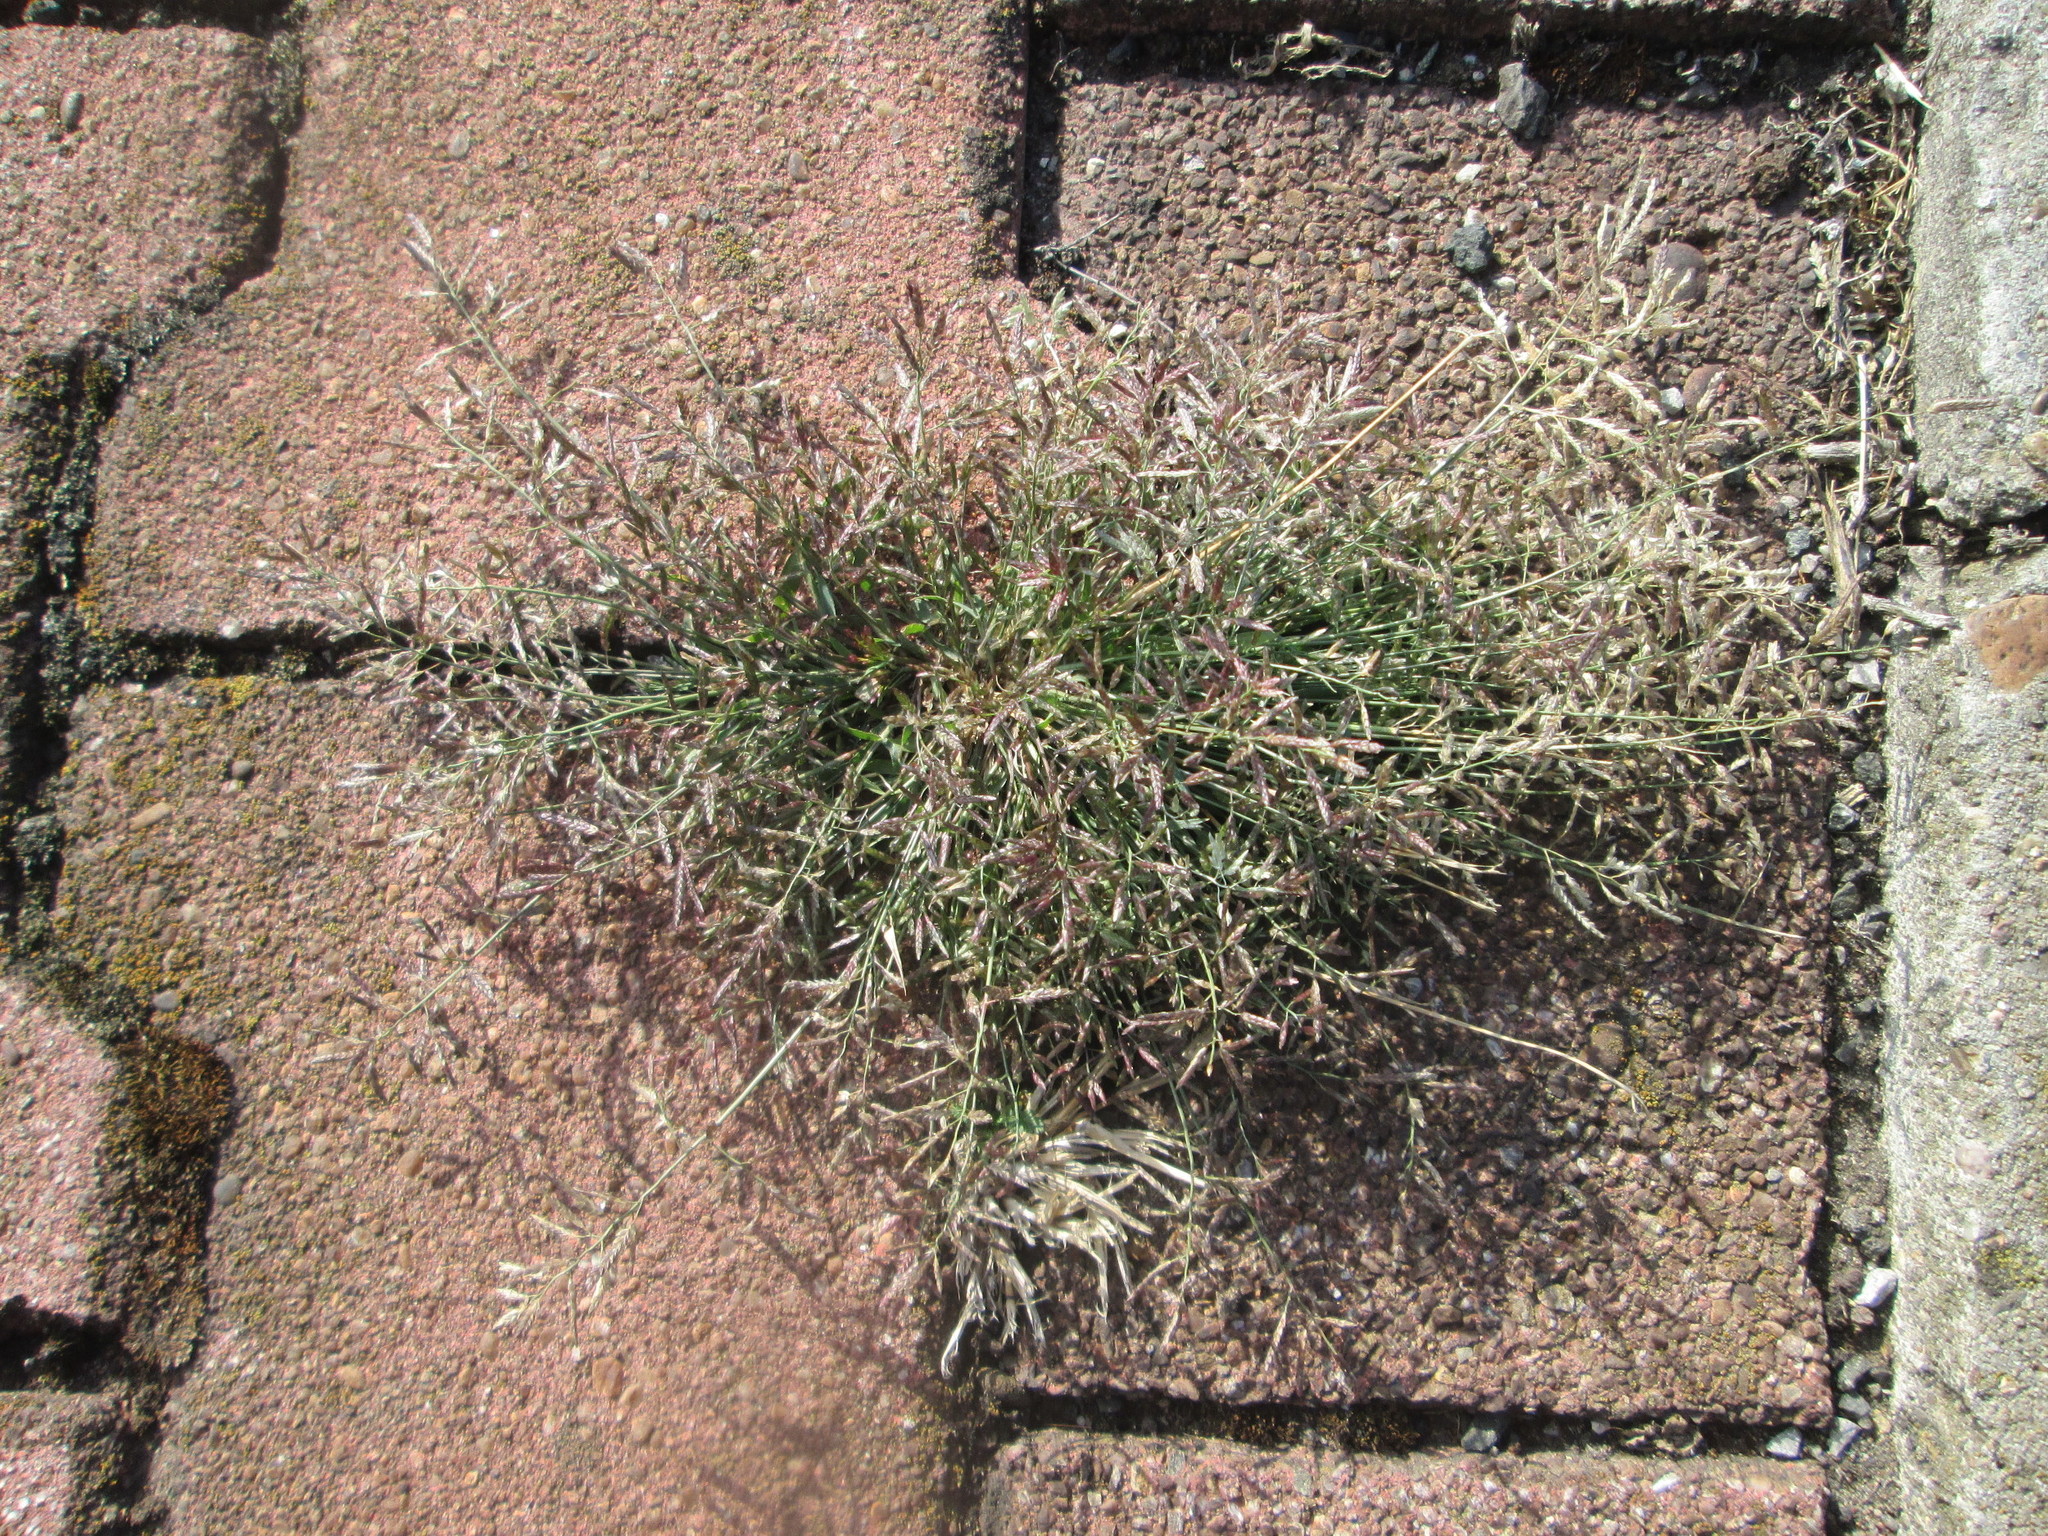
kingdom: Plantae
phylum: Tracheophyta
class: Liliopsida
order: Poales
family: Poaceae
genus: Eragrostis
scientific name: Eragrostis minor
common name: Small love-grass
